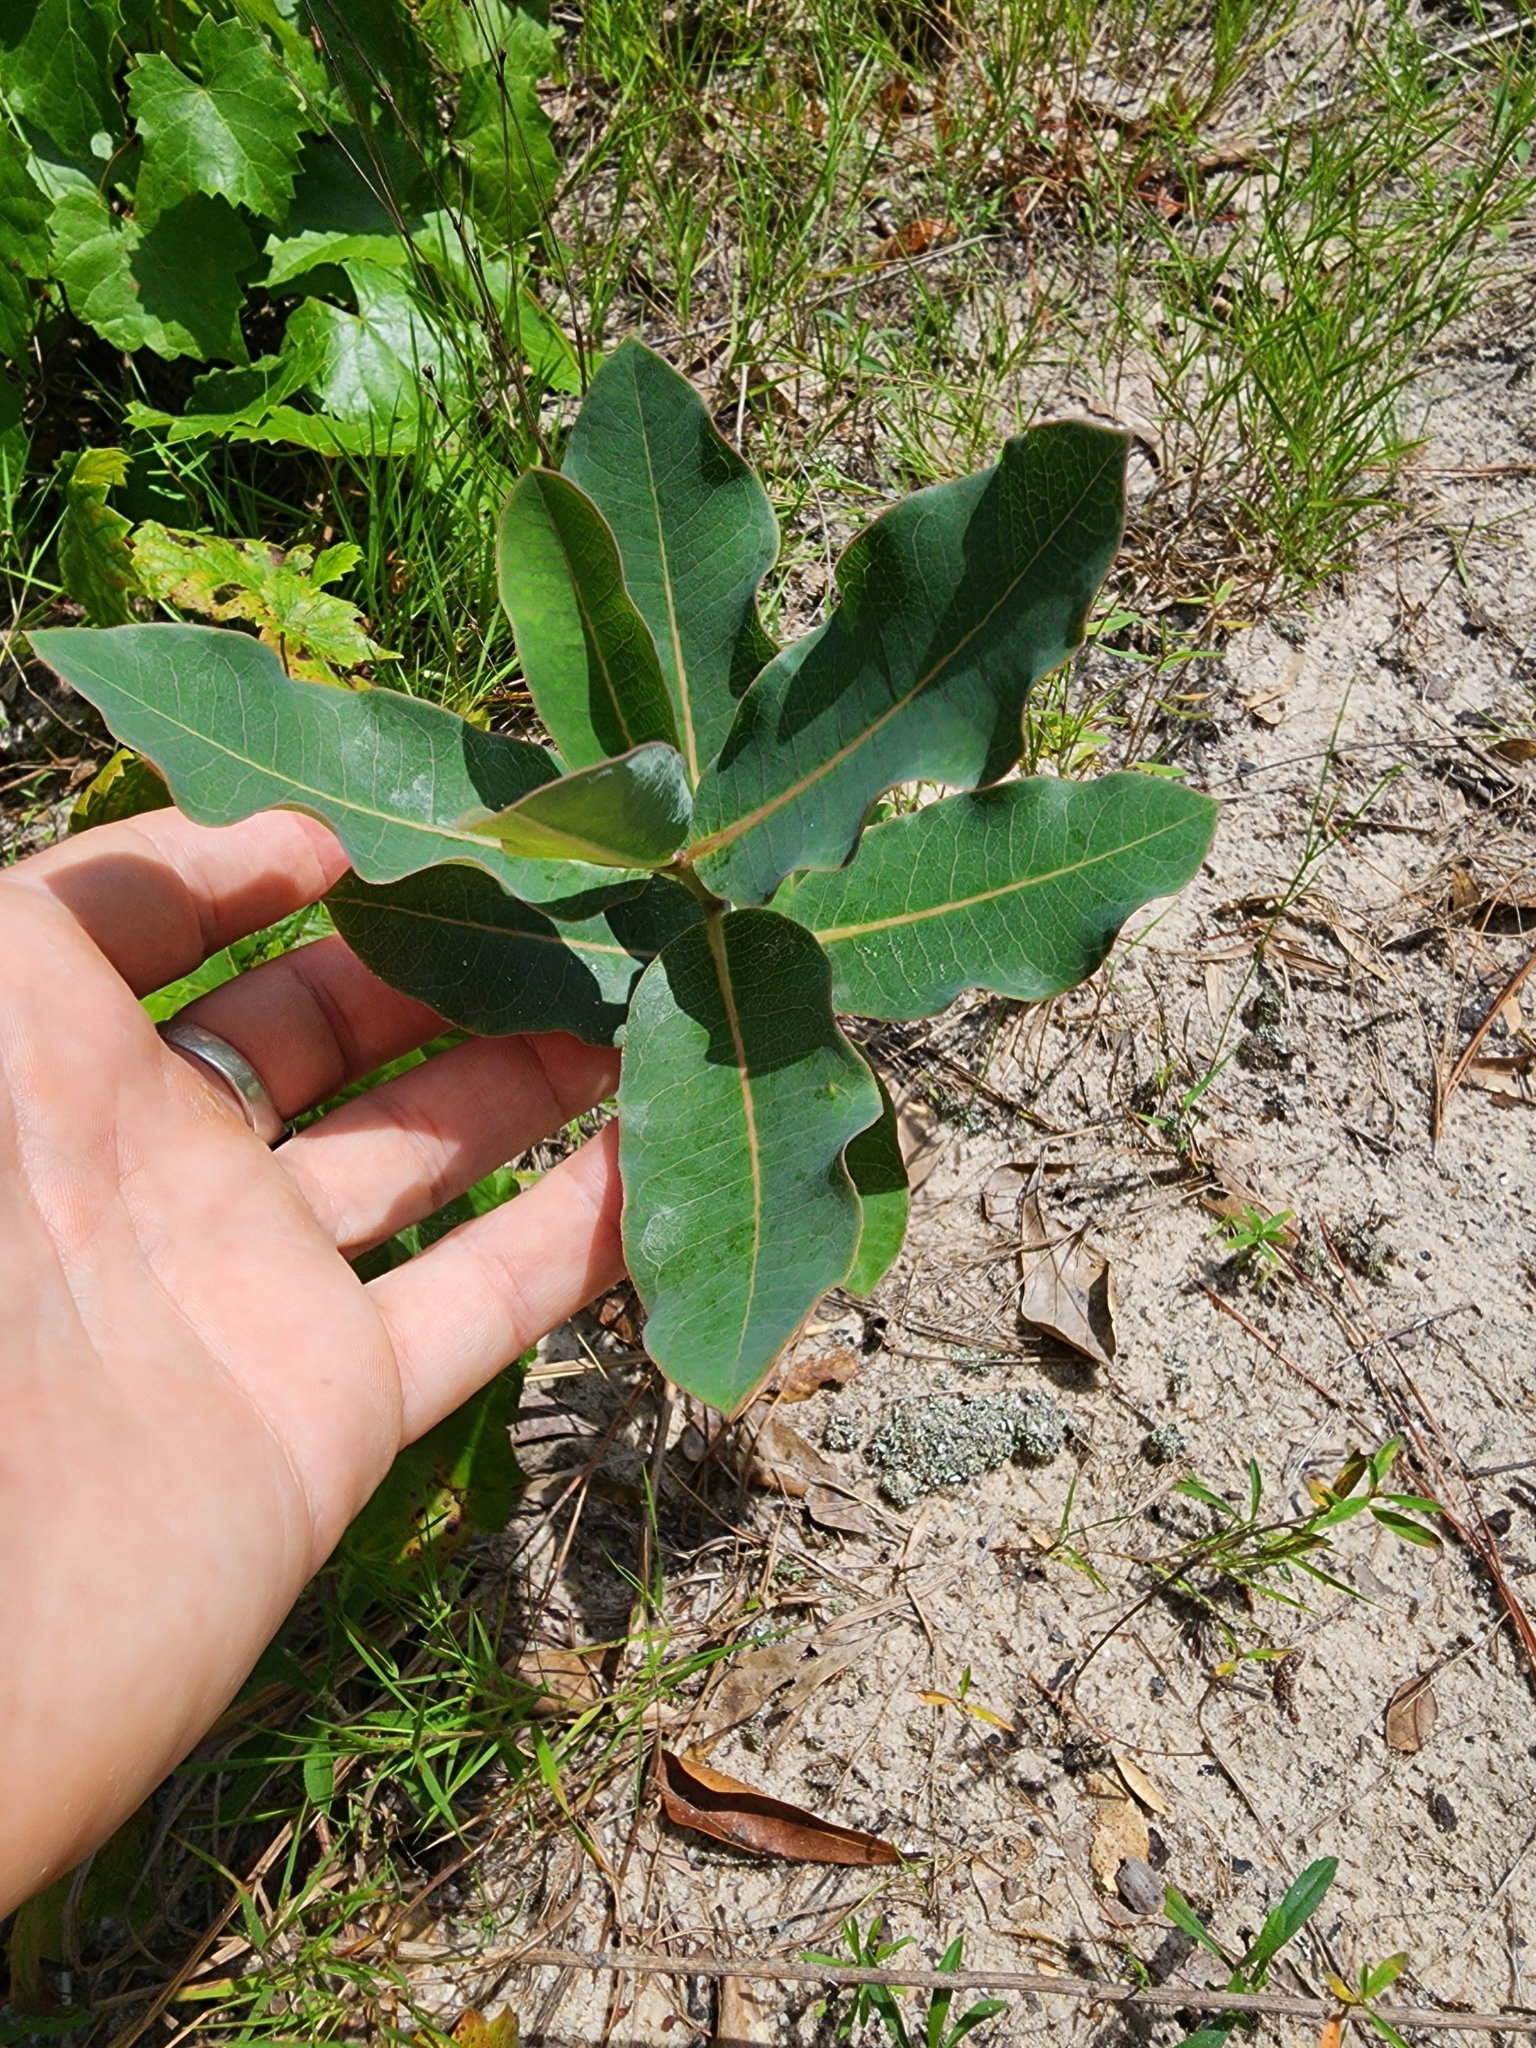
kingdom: Plantae
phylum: Tracheophyta
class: Magnoliopsida
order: Gentianales
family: Apocynaceae
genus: Asclepias
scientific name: Asclepias amplexicaulis
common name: Blunt-leaf milkweed
